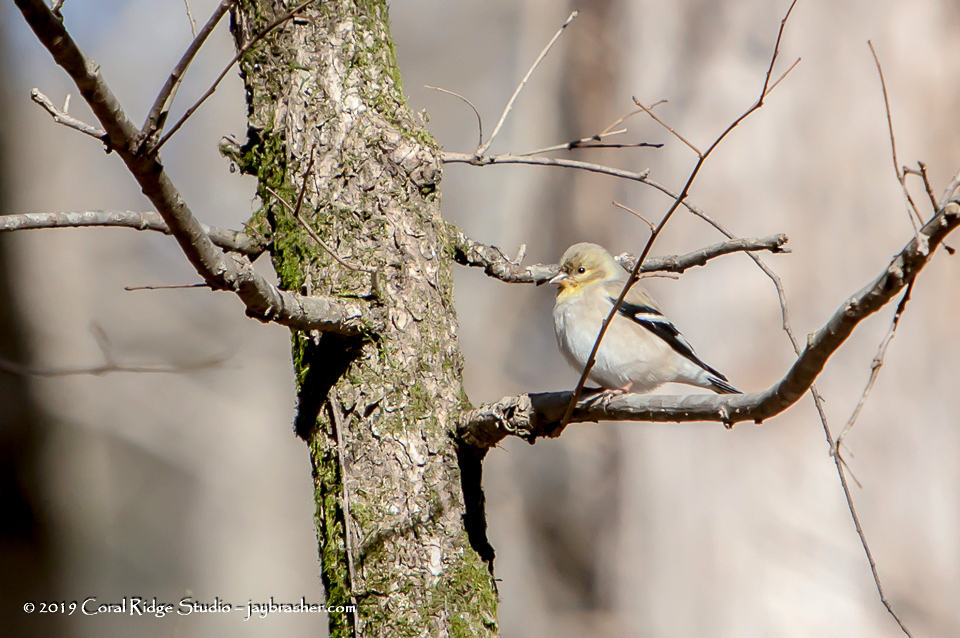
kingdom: Animalia
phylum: Chordata
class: Aves
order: Passeriformes
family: Fringillidae
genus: Spinus
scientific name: Spinus tristis
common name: American goldfinch
